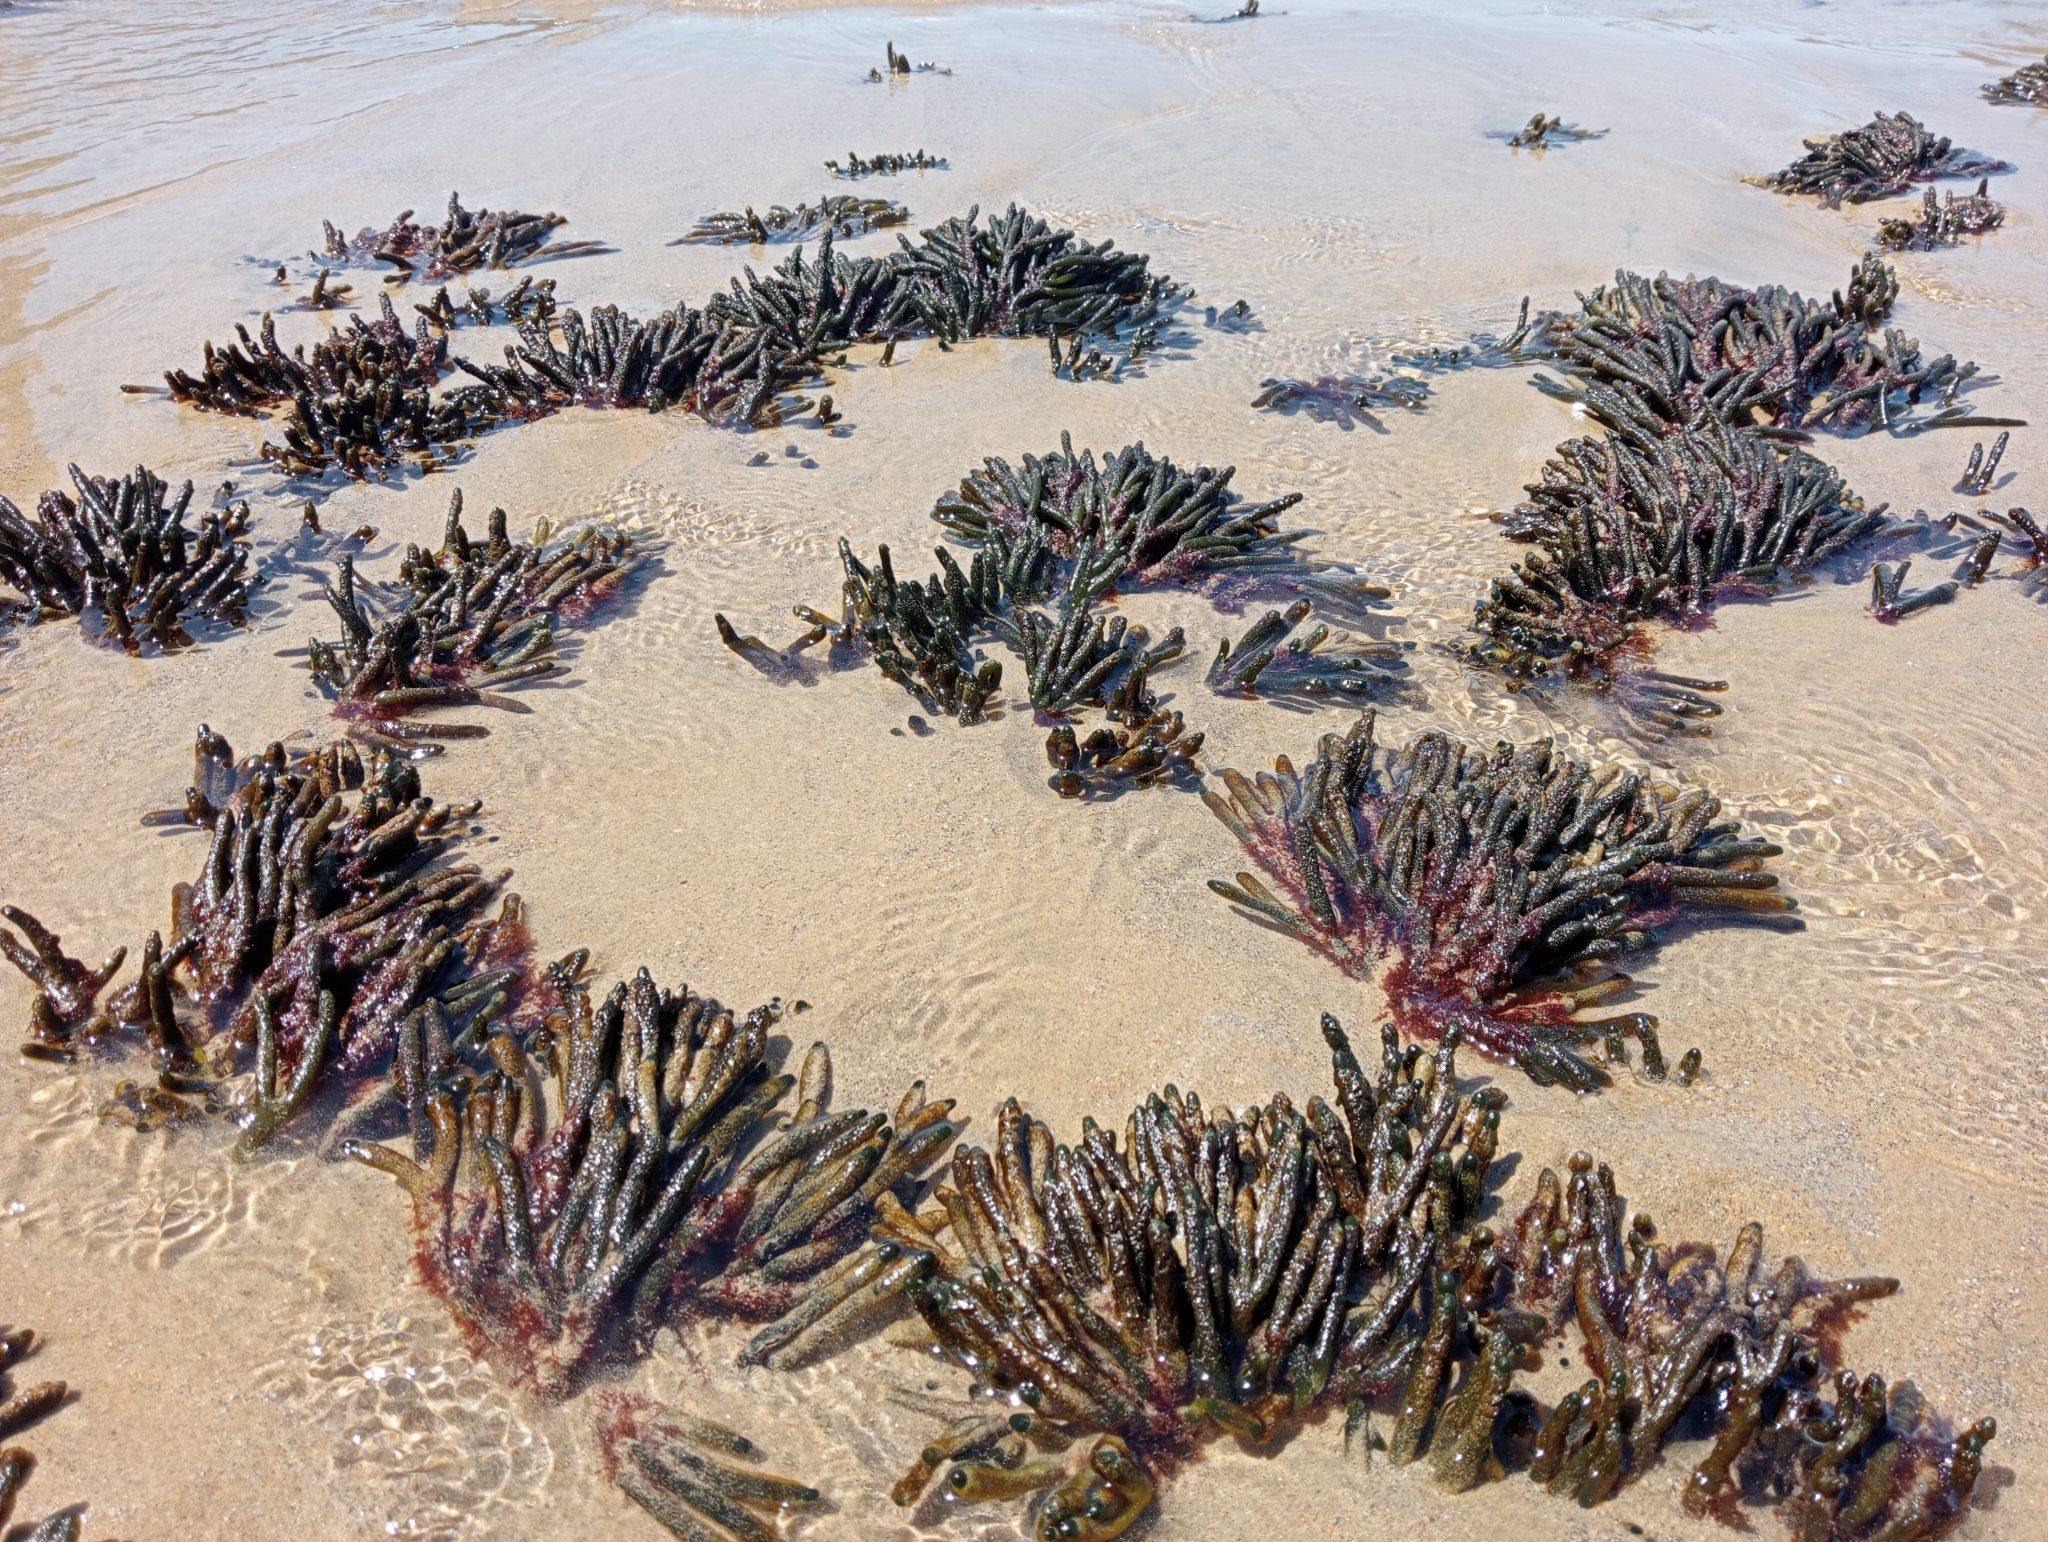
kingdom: Plantae
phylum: Chlorophyta
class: Ulvophyceae
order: Bryopsidales
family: Codiaceae
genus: Codium
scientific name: Codium fragile
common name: Dead man's fingers
